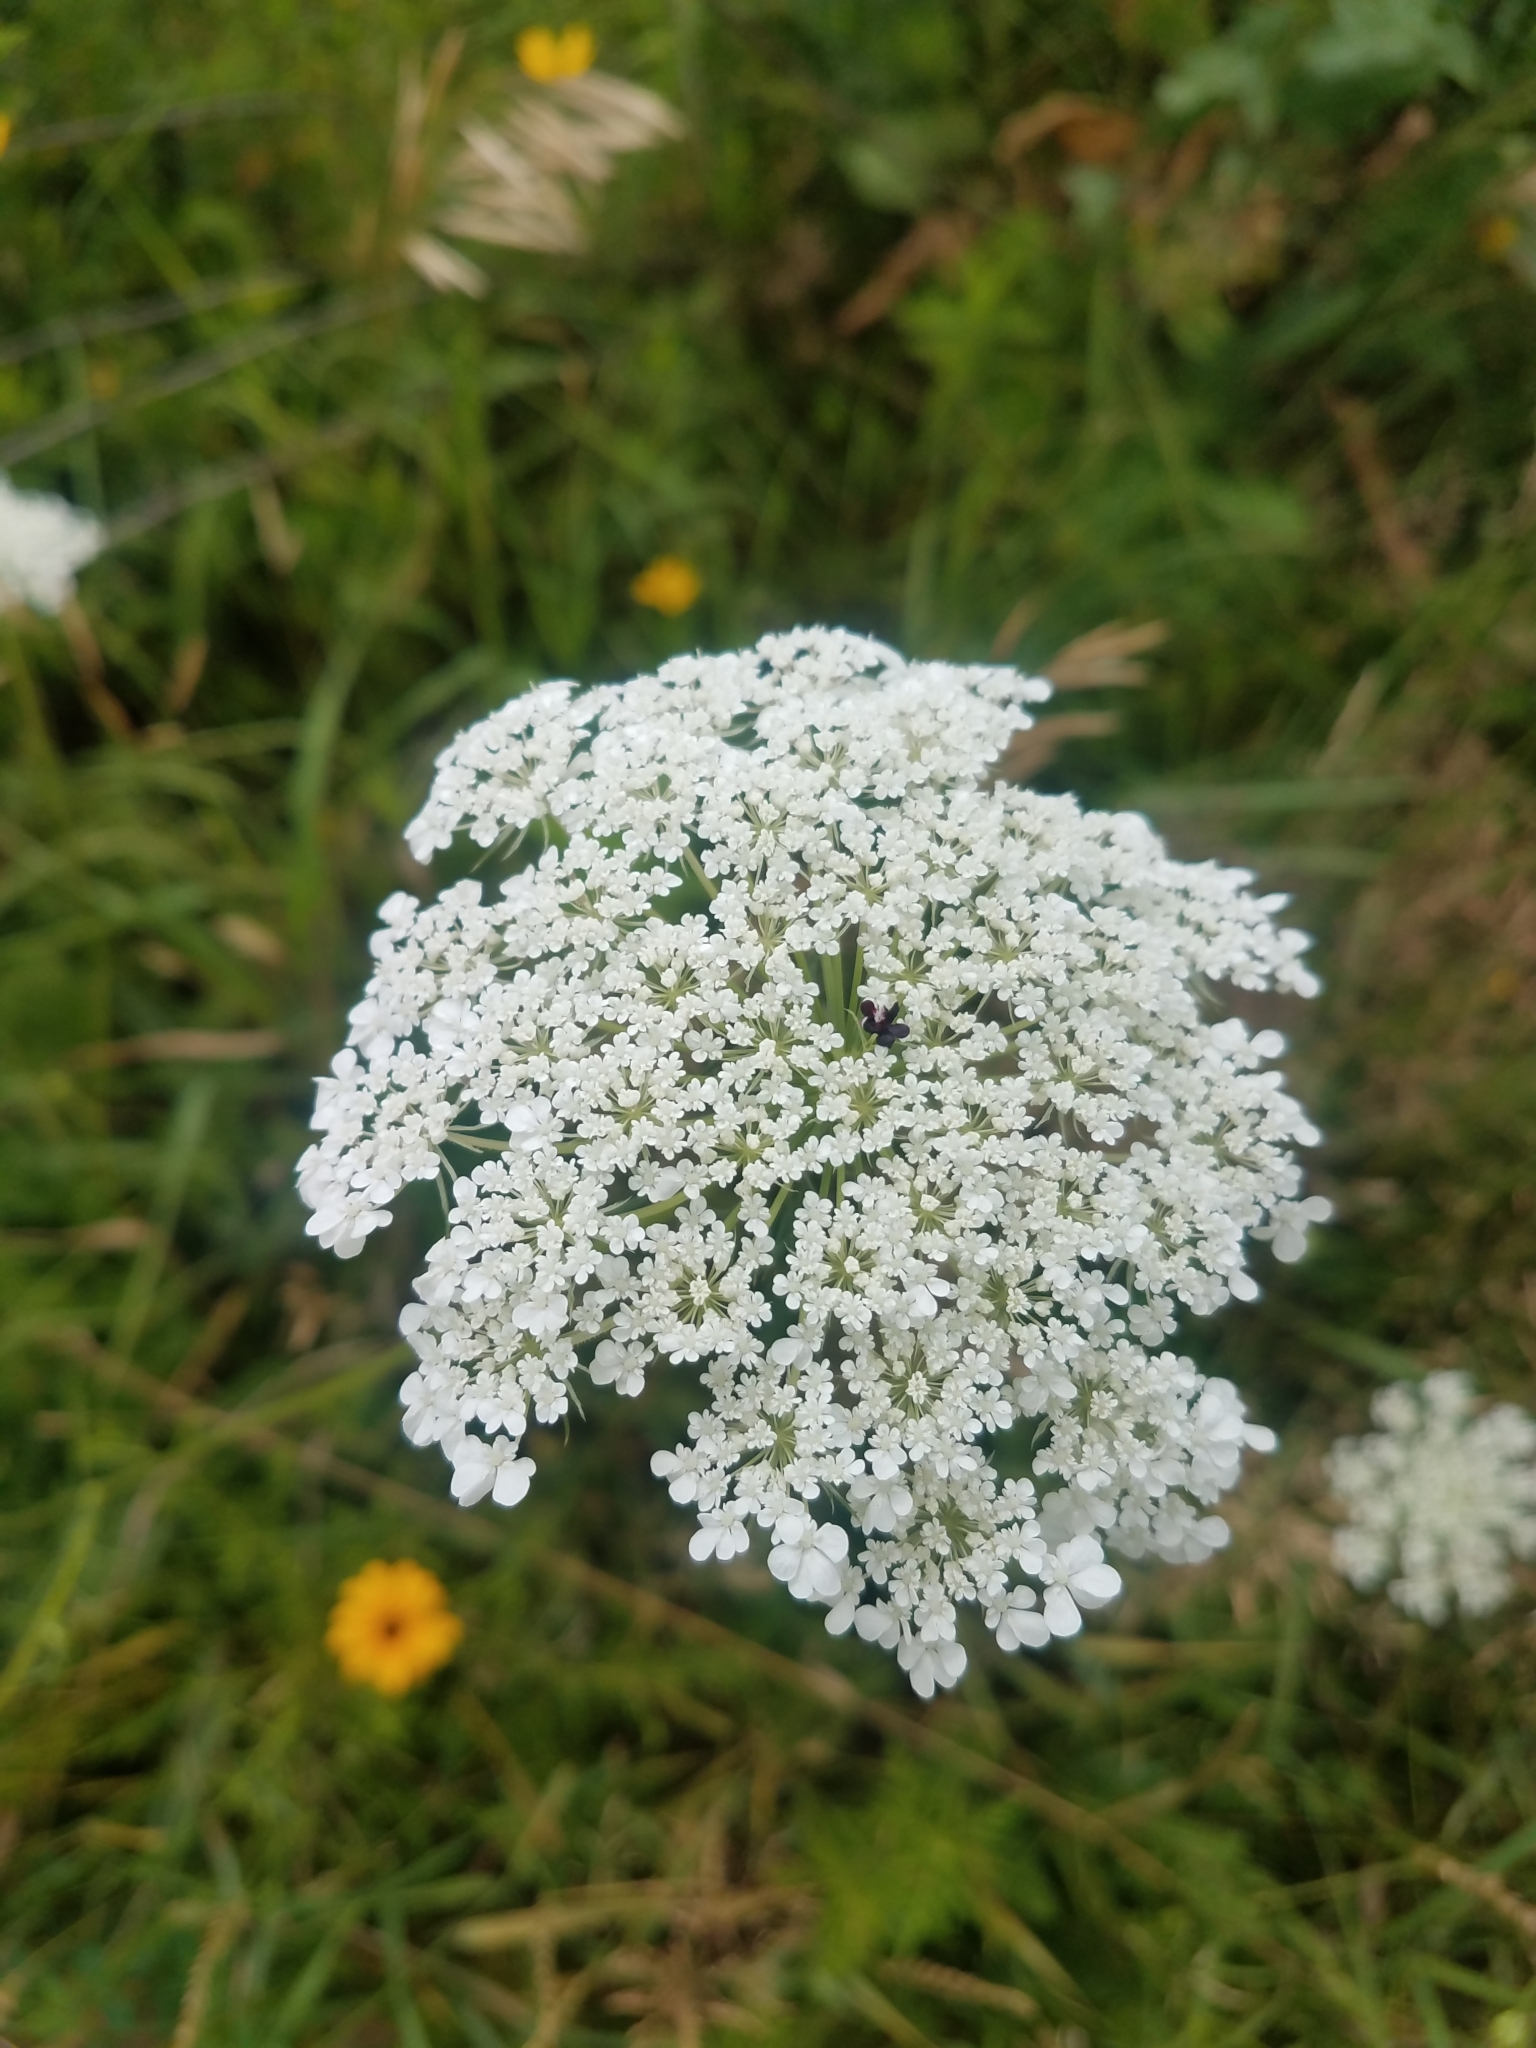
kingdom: Plantae
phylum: Tracheophyta
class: Magnoliopsida
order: Apiales
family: Apiaceae
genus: Daucus
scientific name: Daucus carota
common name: Wild carrot
